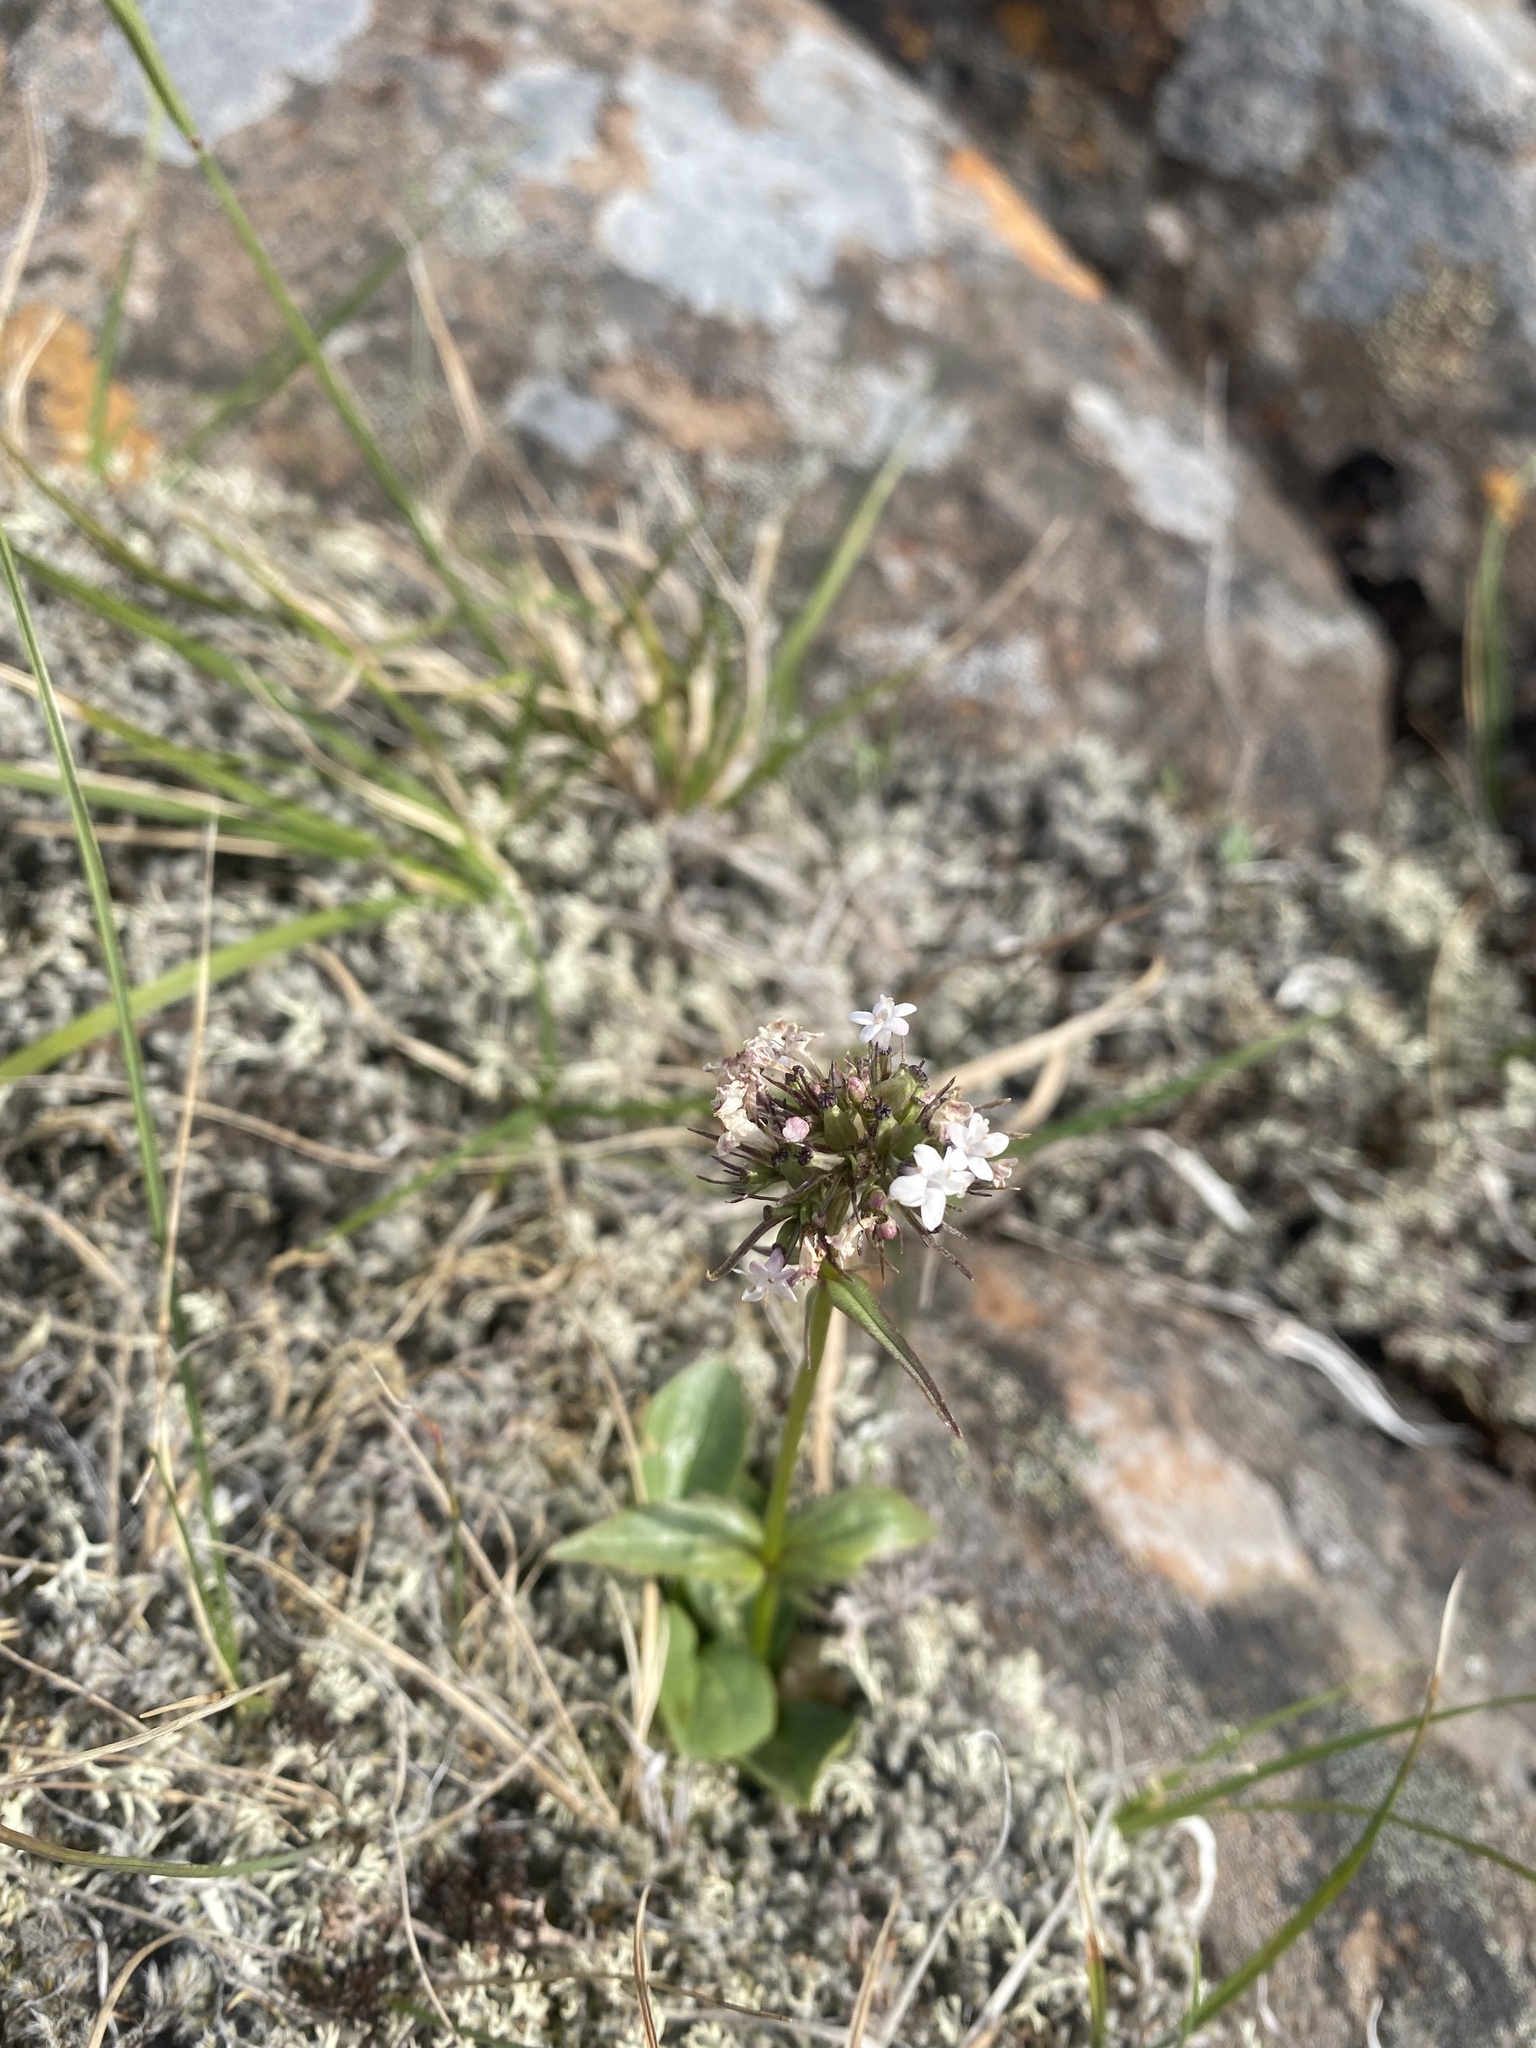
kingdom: Plantae
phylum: Tracheophyta
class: Magnoliopsida
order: Dipsacales
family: Caprifoliaceae
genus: Valeriana
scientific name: Valeriana capitata
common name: Capitate valerian
